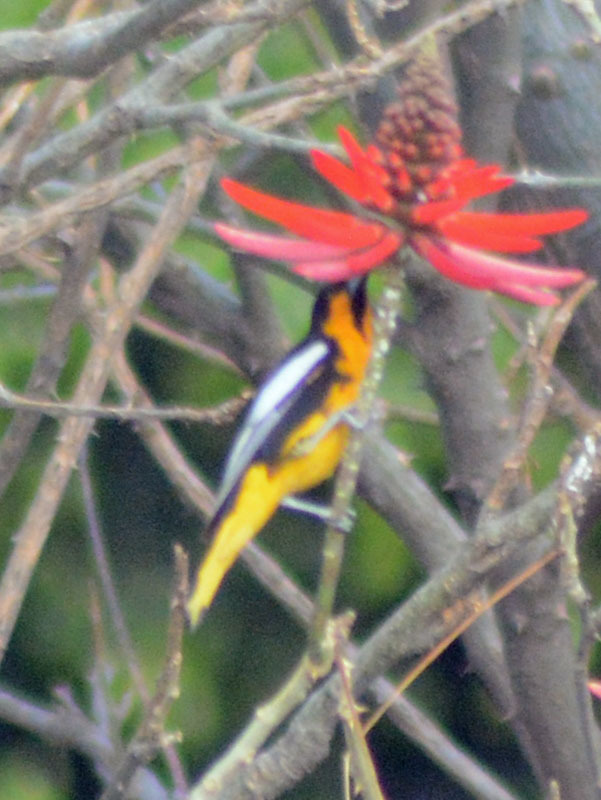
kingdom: Animalia
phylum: Chordata
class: Aves
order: Passeriformes
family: Icteridae
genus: Icterus
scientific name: Icterus abeillei
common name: Black-backed oriole
